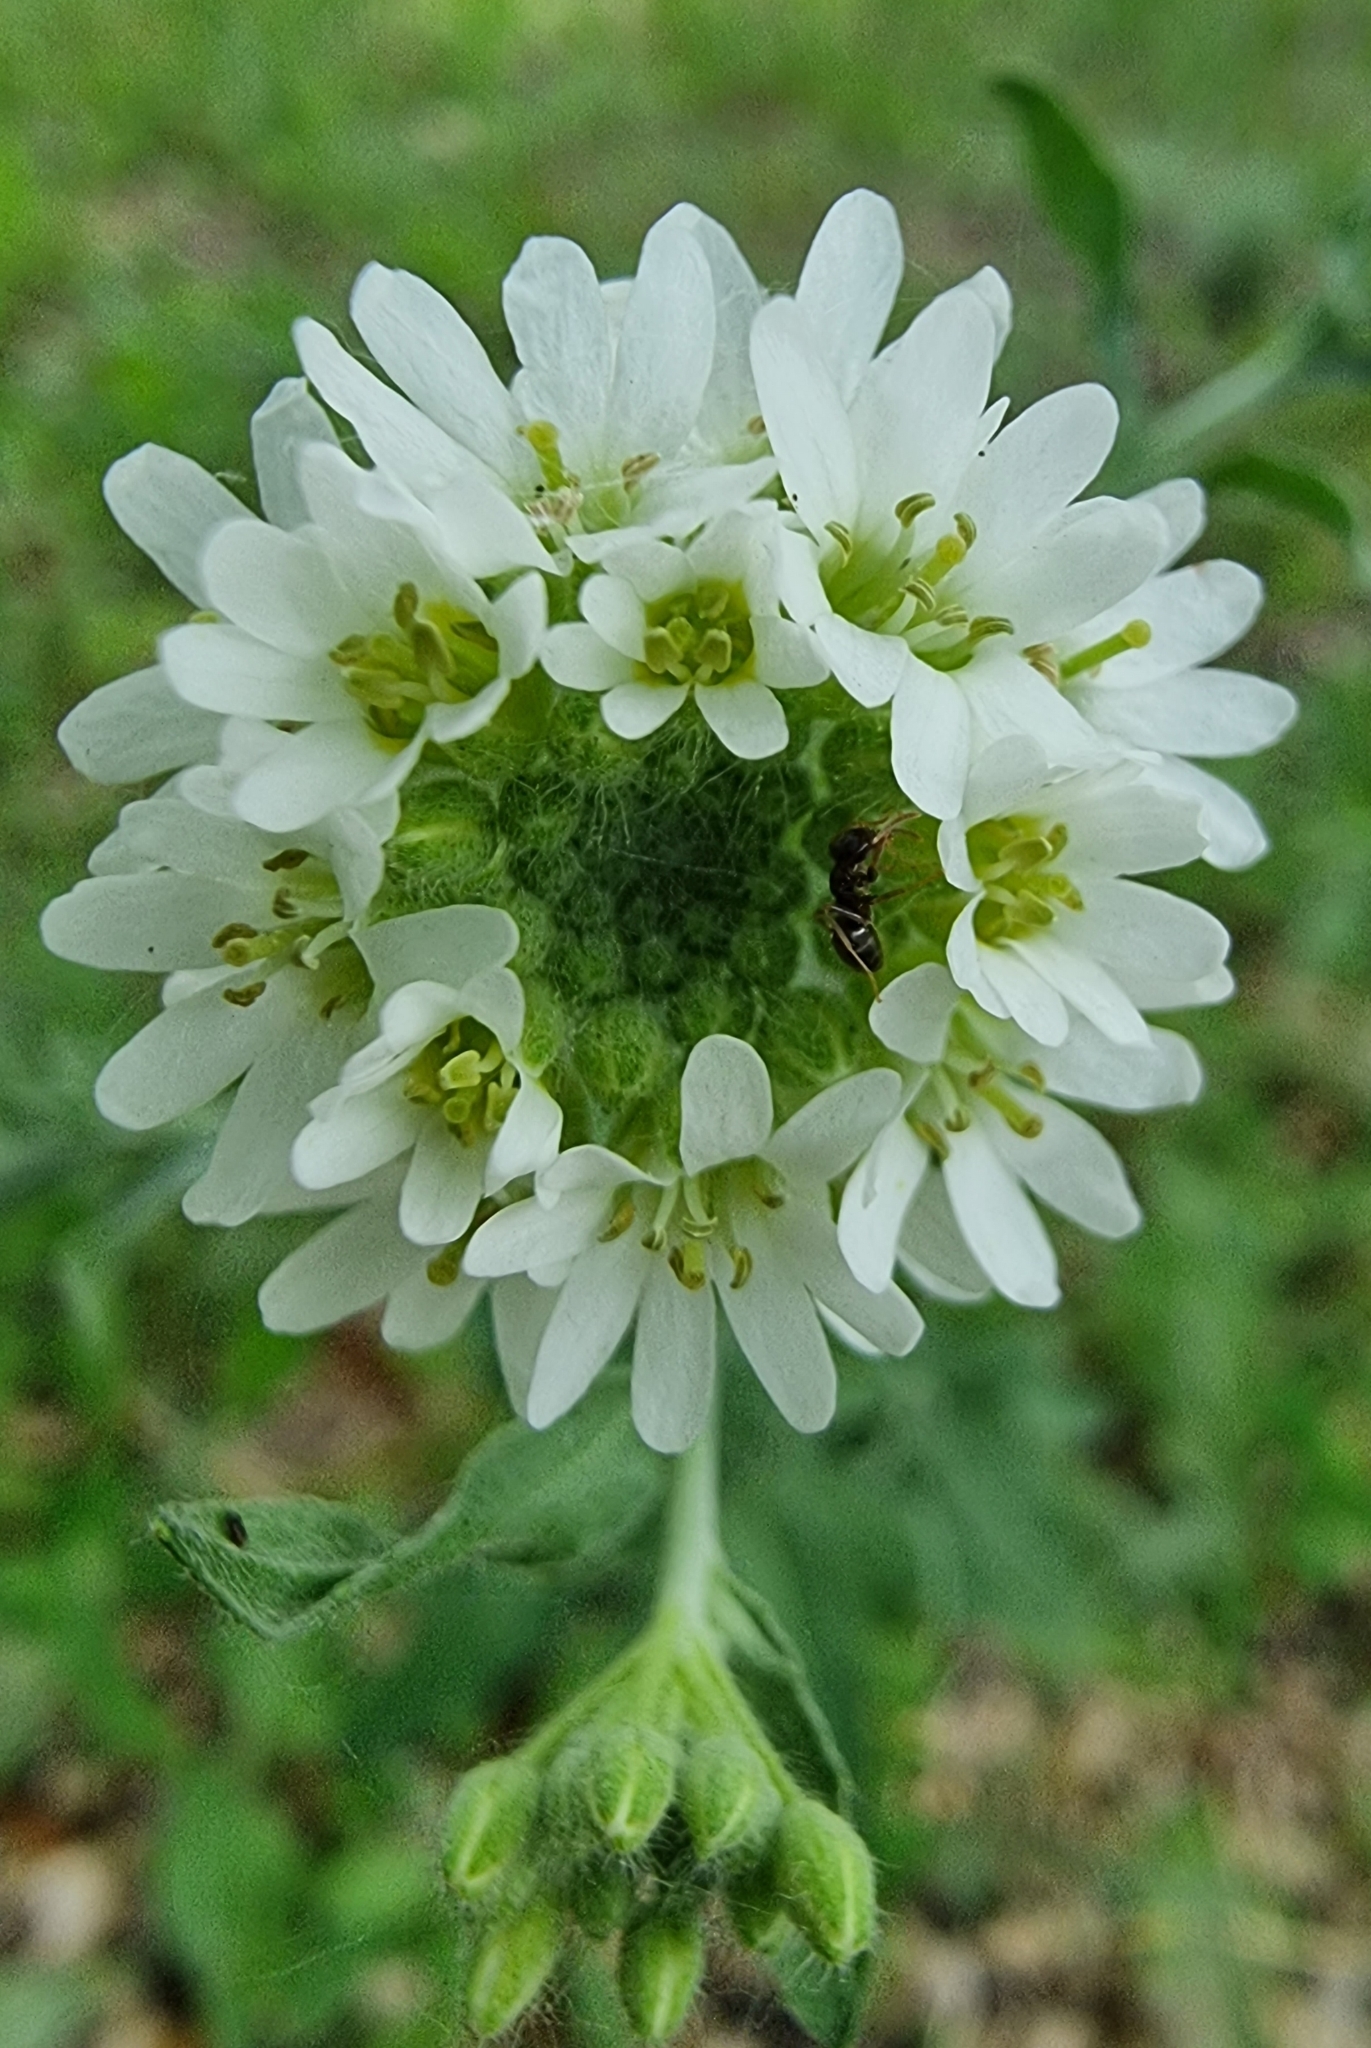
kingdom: Plantae
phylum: Tracheophyta
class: Magnoliopsida
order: Brassicales
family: Brassicaceae
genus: Berteroa
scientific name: Berteroa incana
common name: Hoary alison
